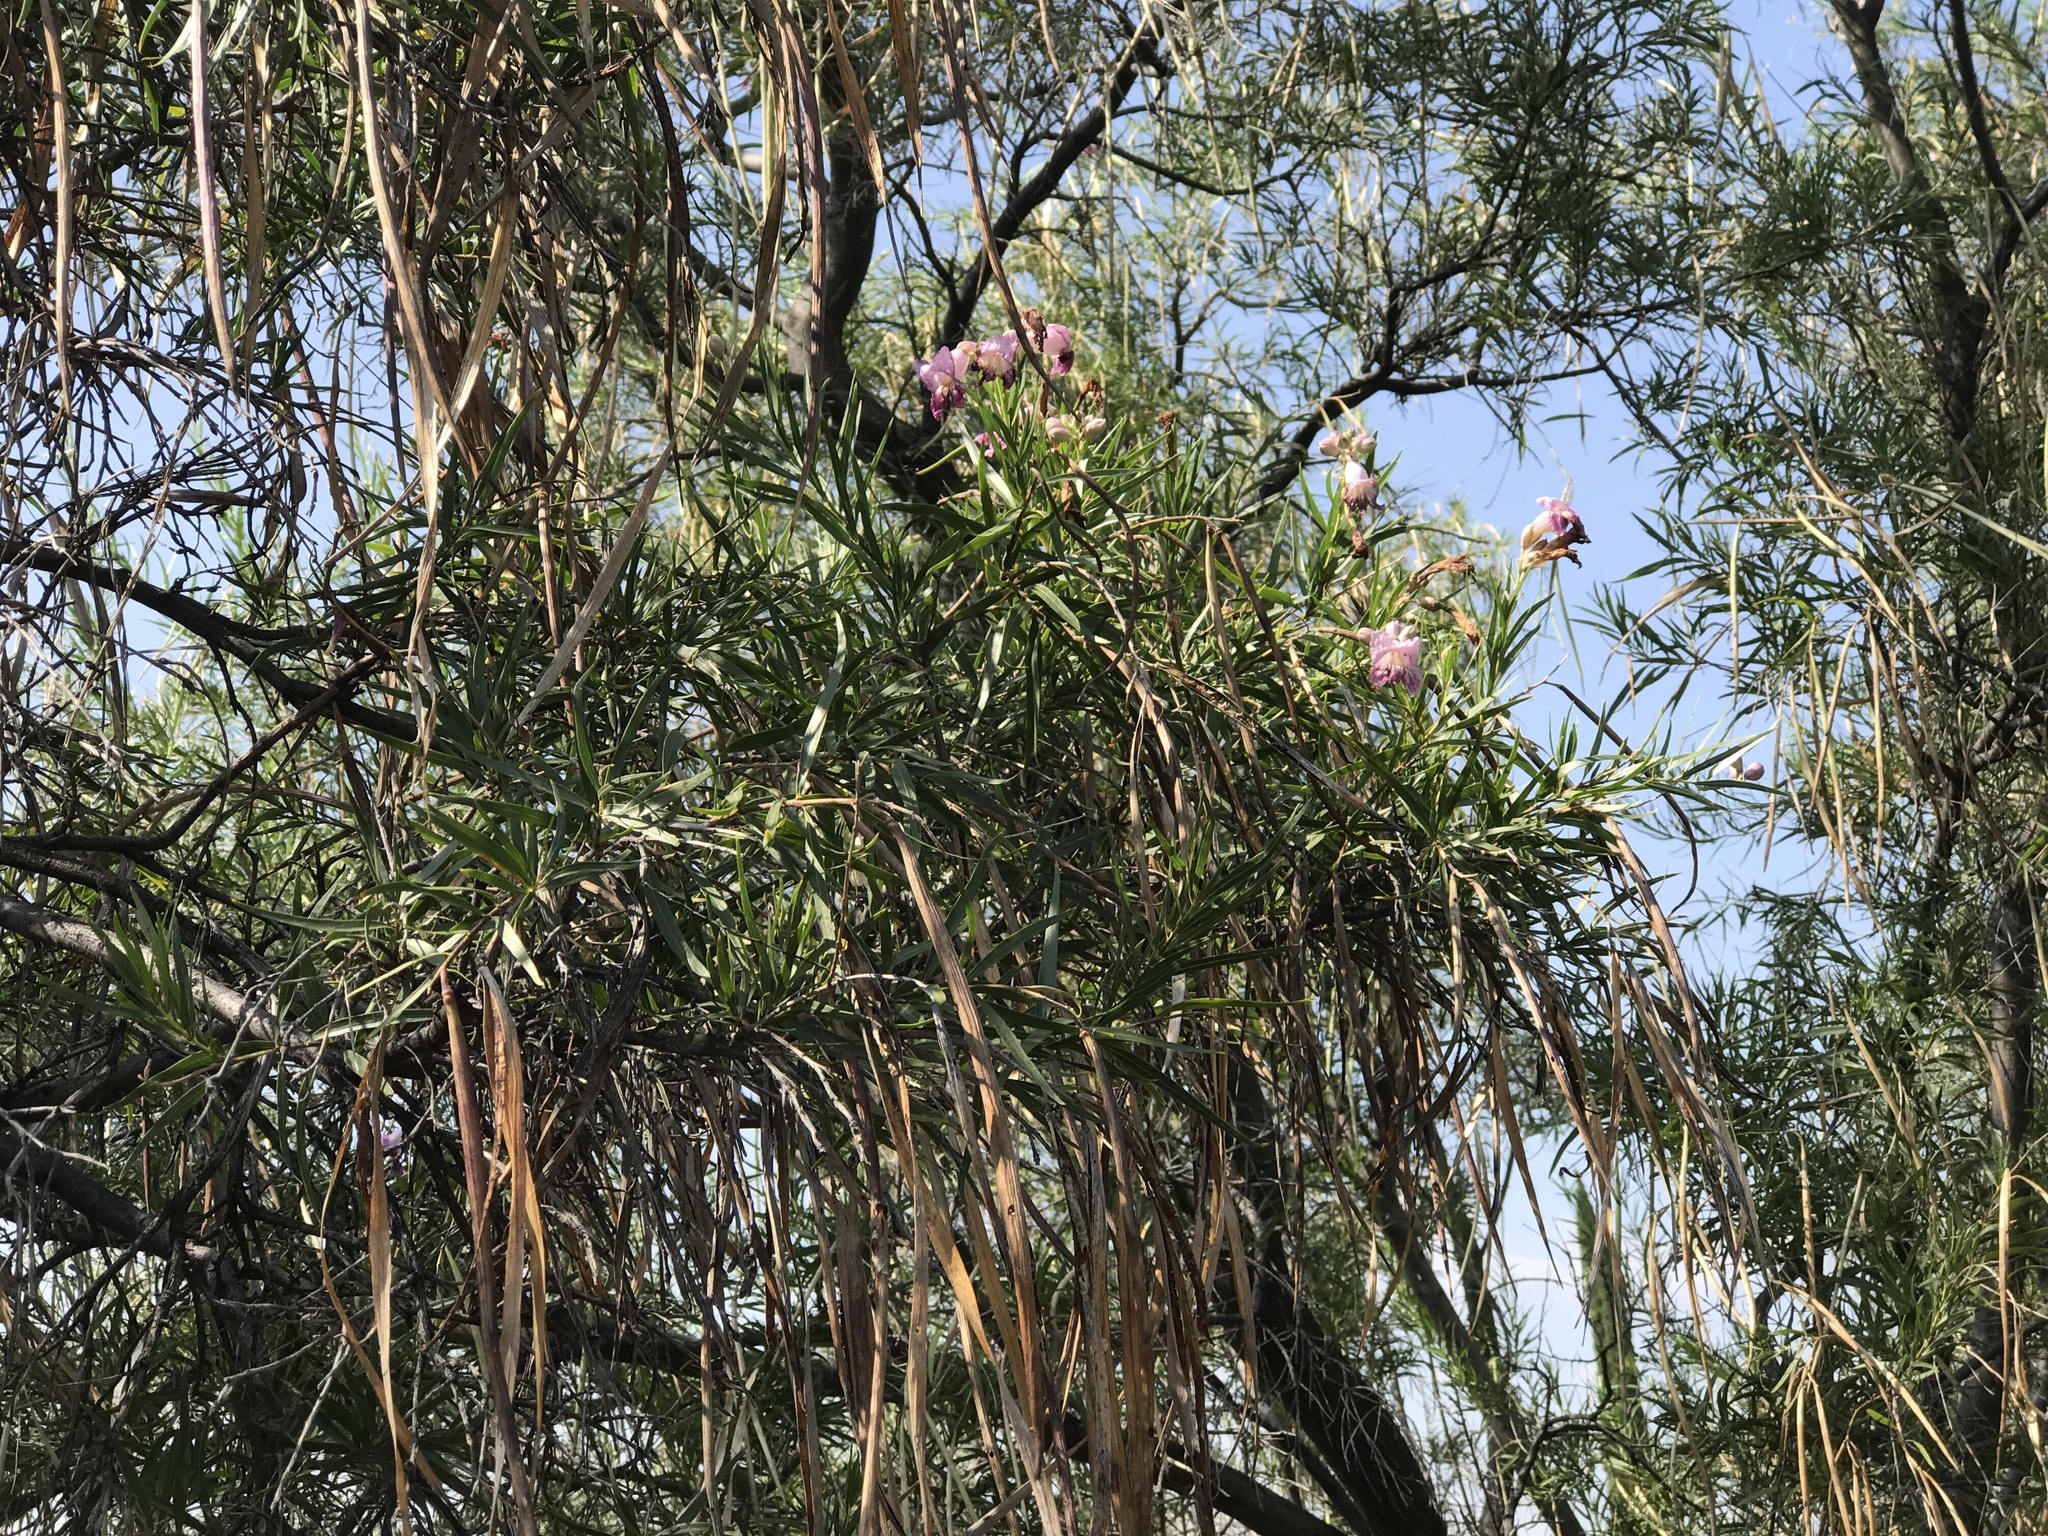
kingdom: Plantae
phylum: Tracheophyta
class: Magnoliopsida
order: Lamiales
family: Bignoniaceae
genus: Chilopsis
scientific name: Chilopsis linearis
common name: Desert-willow
